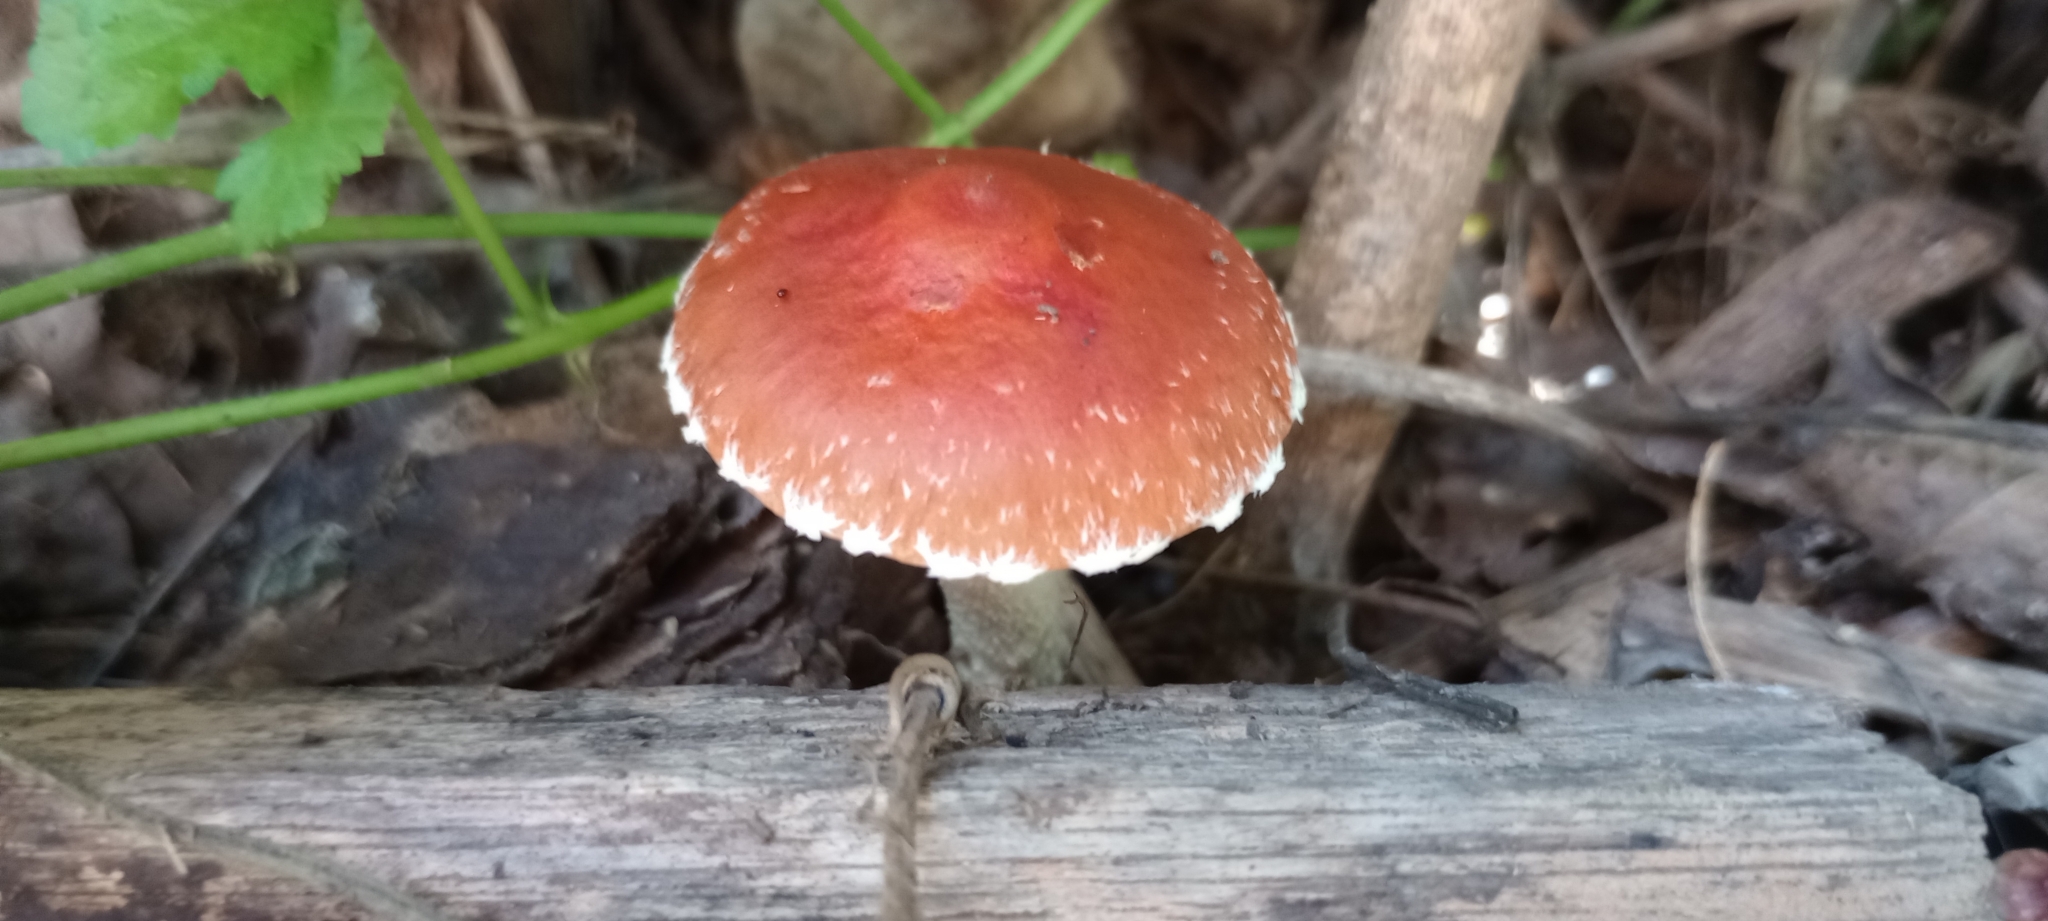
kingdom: Fungi
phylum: Basidiomycota
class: Agaricomycetes
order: Agaricales
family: Strophariaceae
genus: Leratiomyces
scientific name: Leratiomyces ceres
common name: Redlead roundhead
